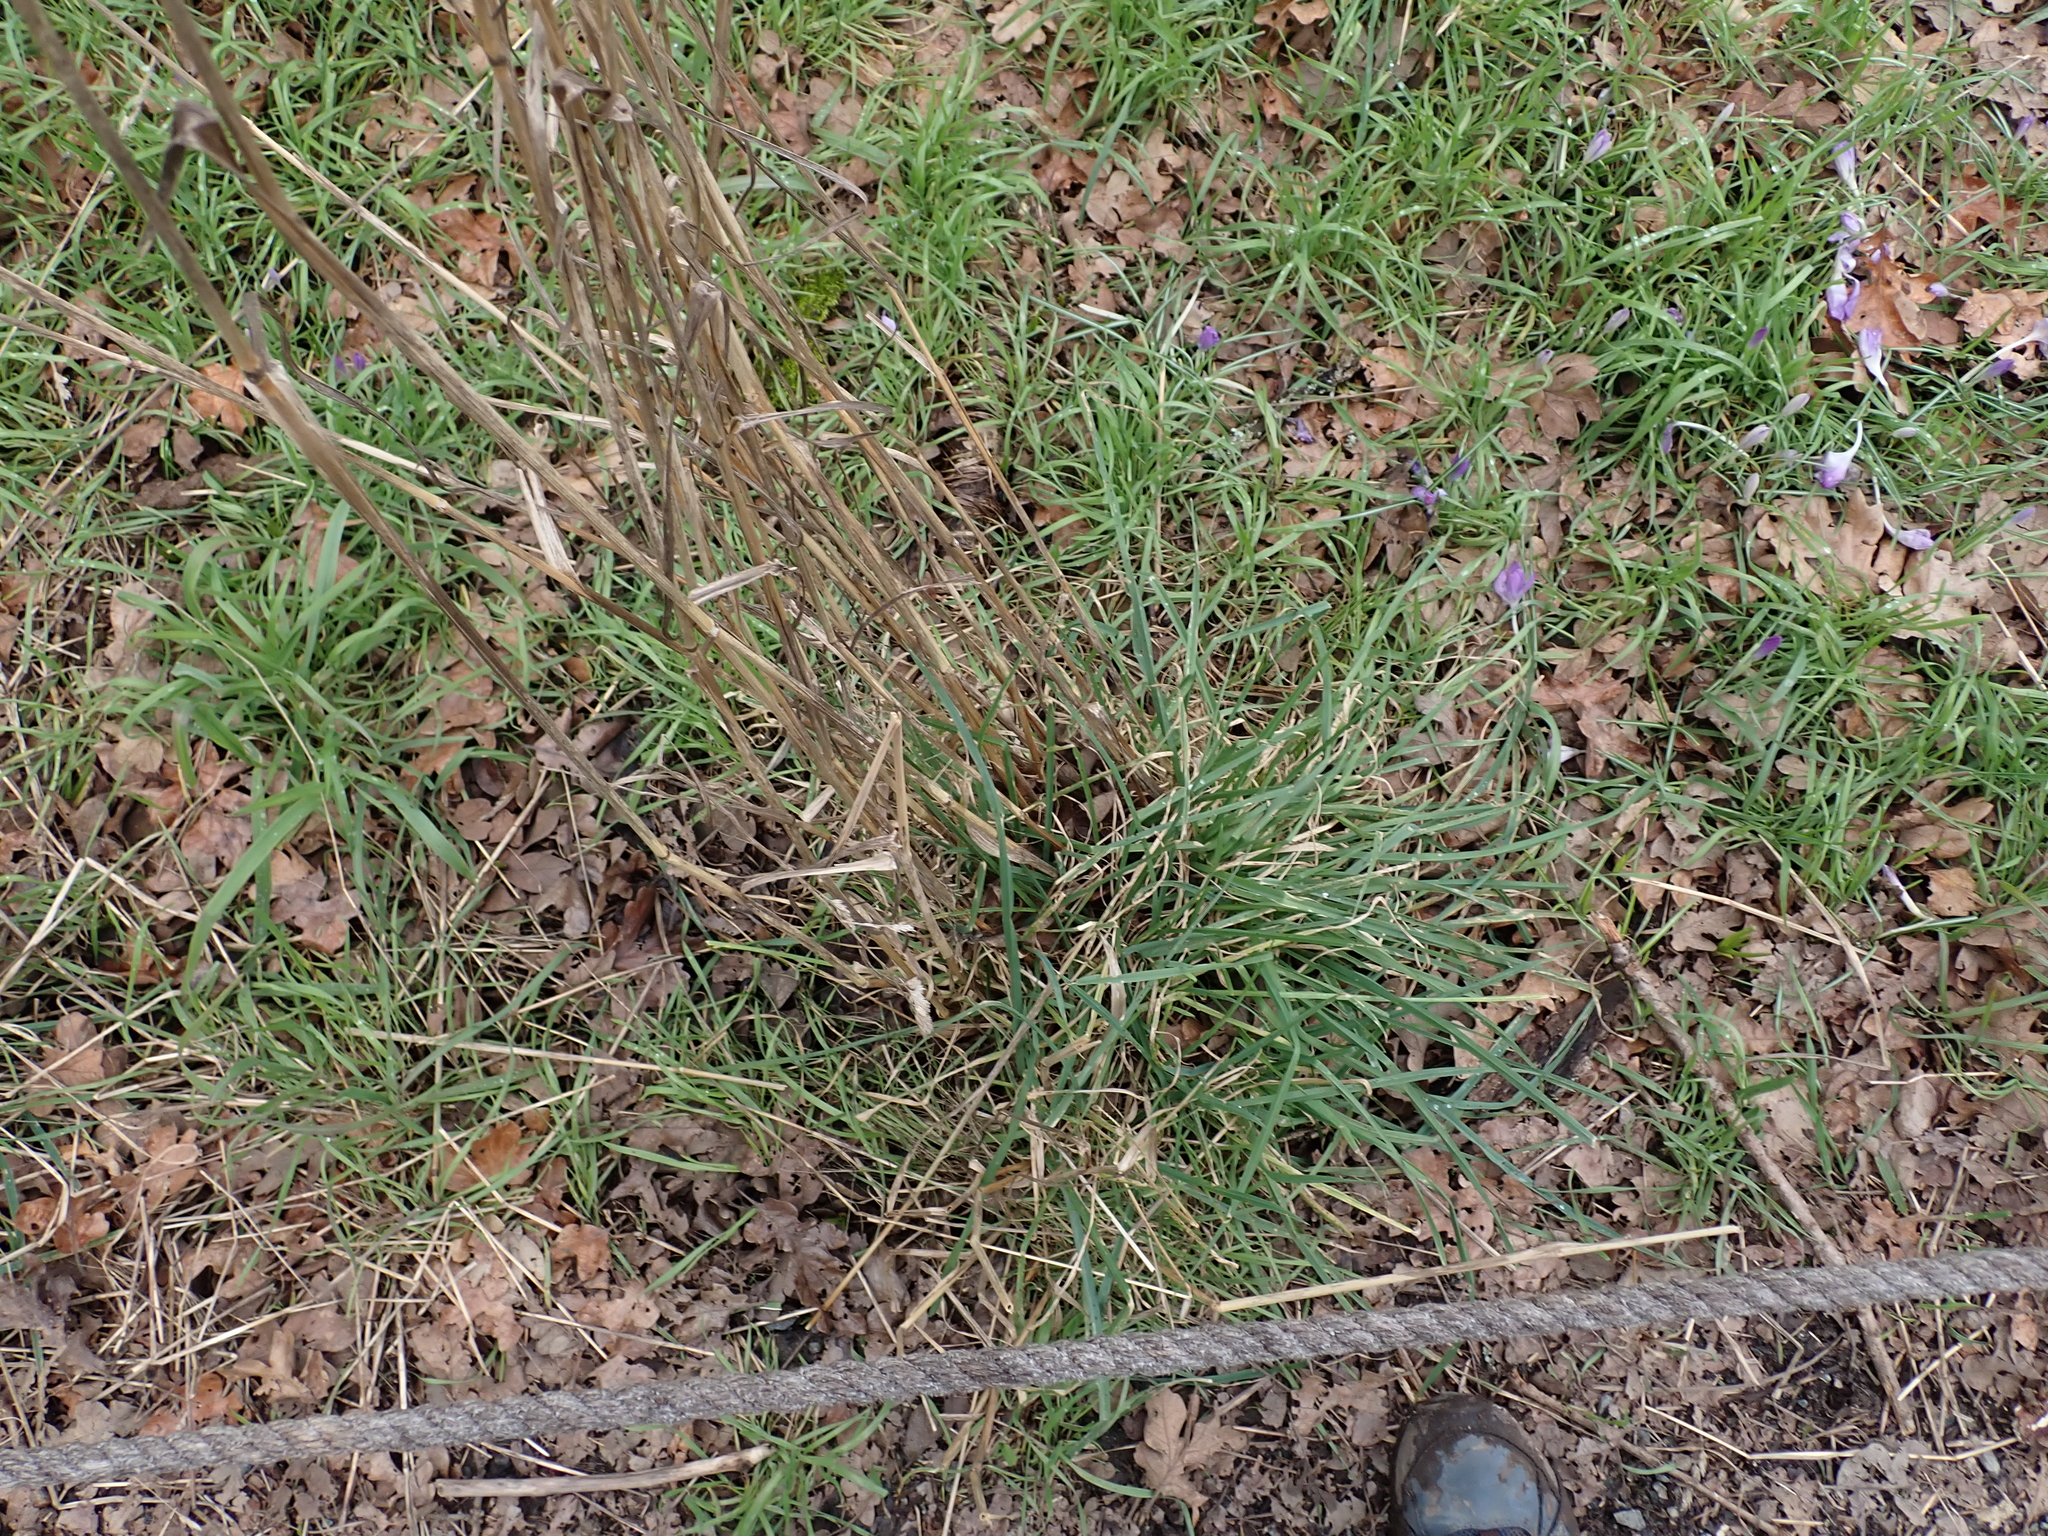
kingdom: Plantae
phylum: Tracheophyta
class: Liliopsida
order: Poales
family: Poaceae
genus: Dactylis
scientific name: Dactylis glomerata
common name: Orchardgrass
